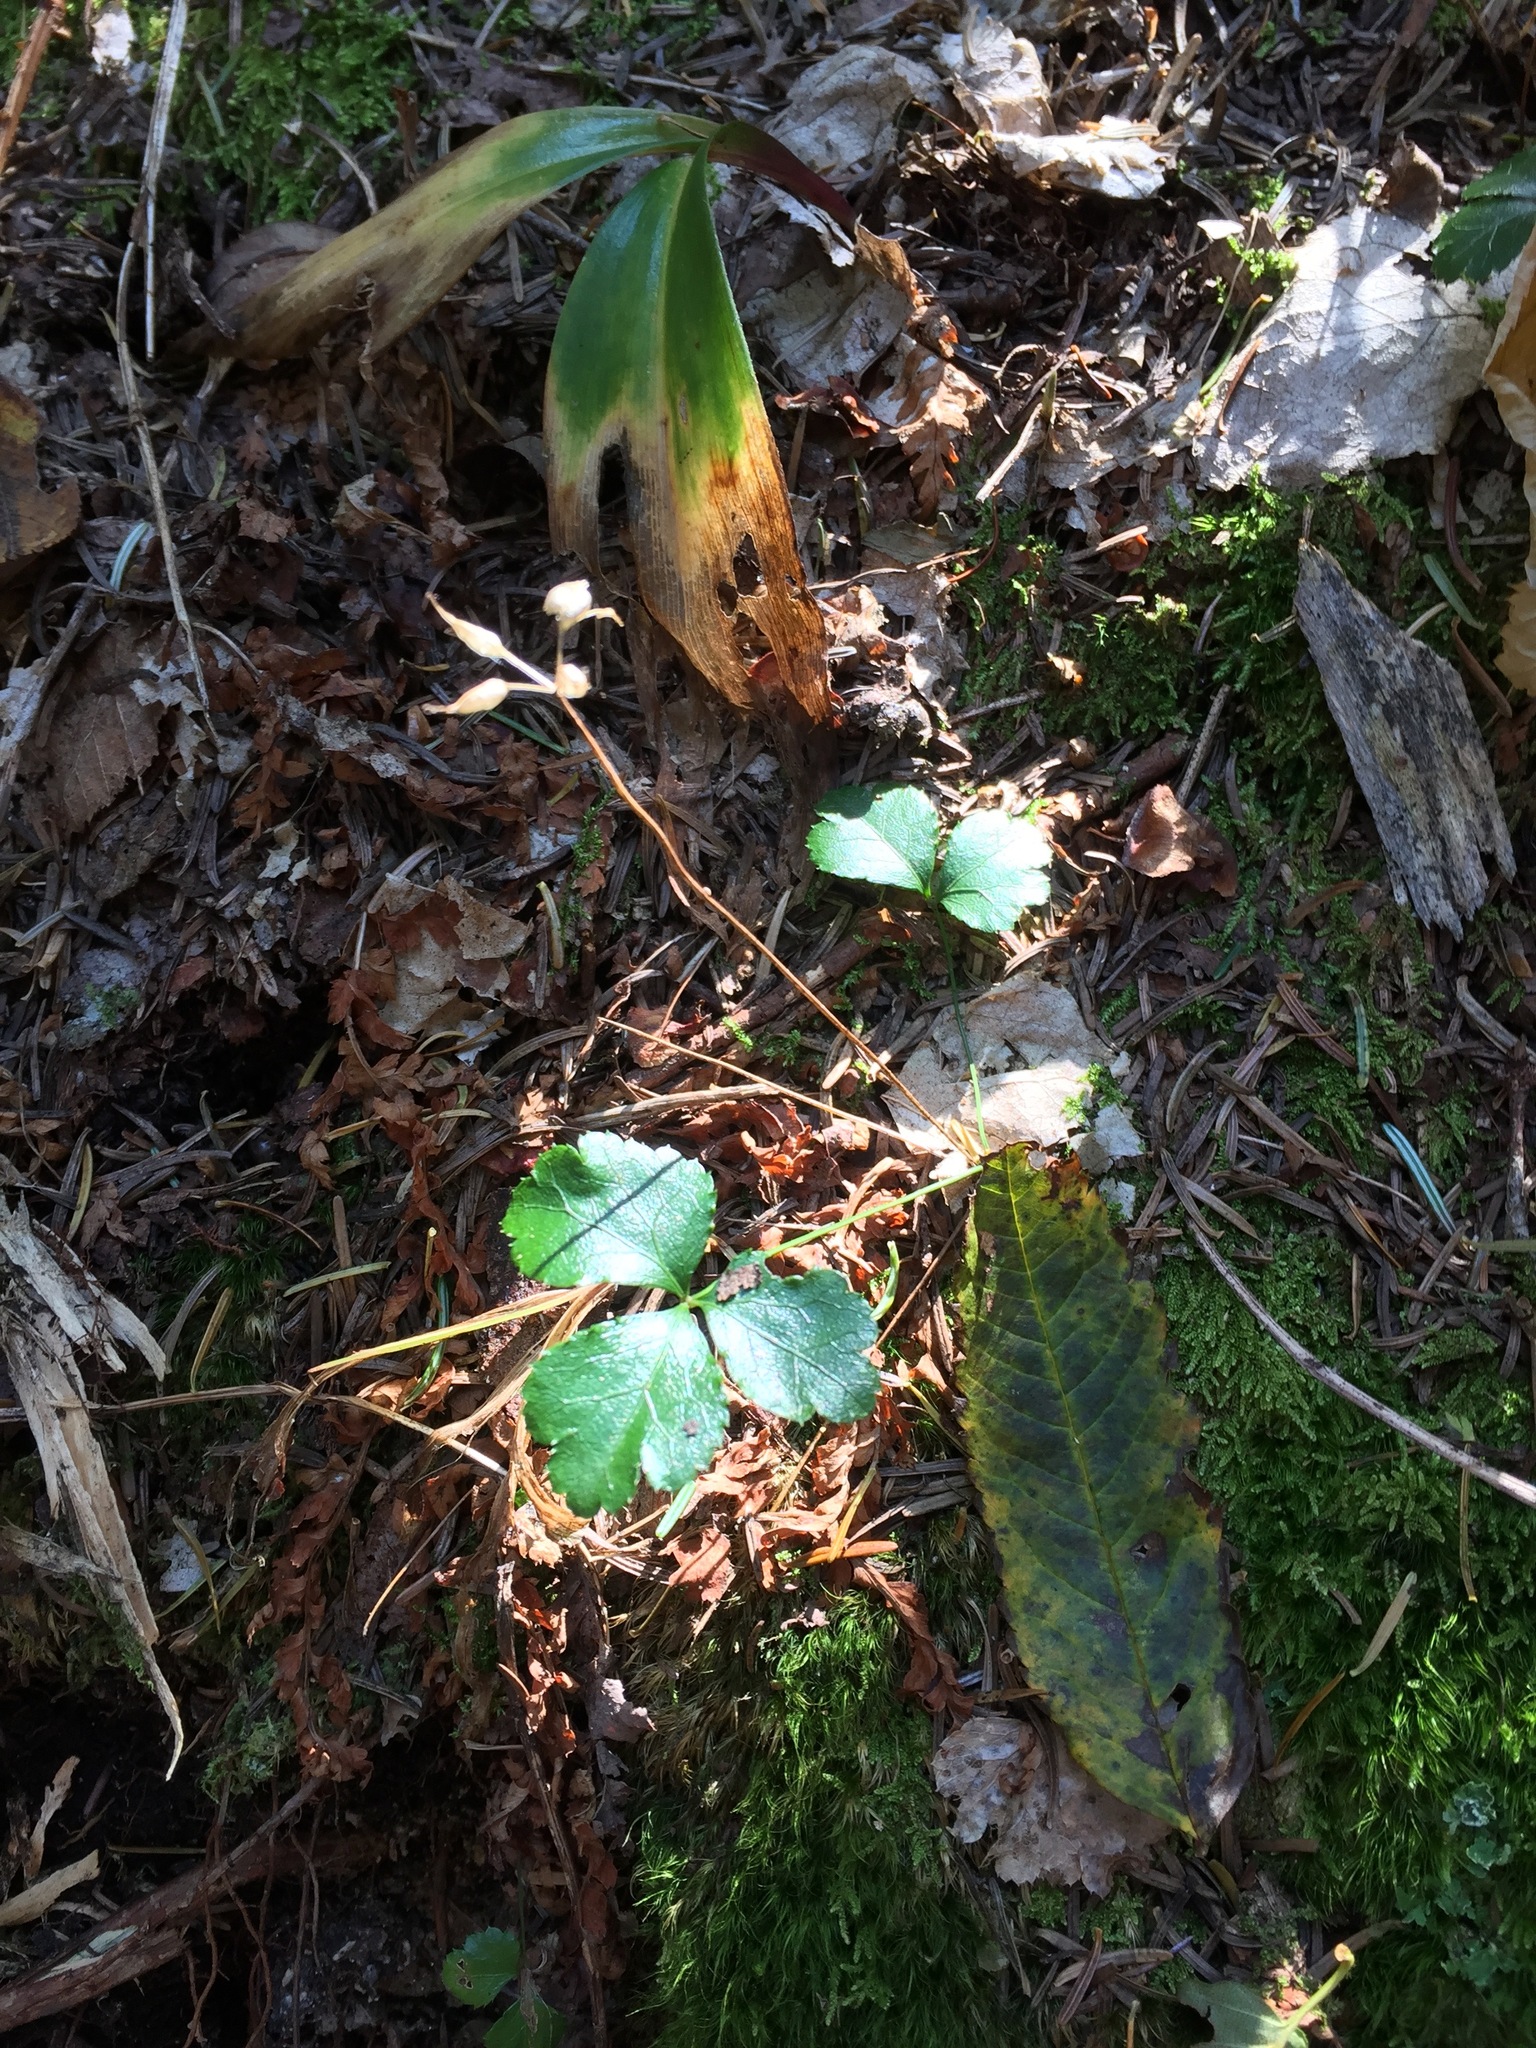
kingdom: Plantae
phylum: Tracheophyta
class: Magnoliopsida
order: Ranunculales
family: Ranunculaceae
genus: Coptis
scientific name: Coptis trifolia
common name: Canker-root
